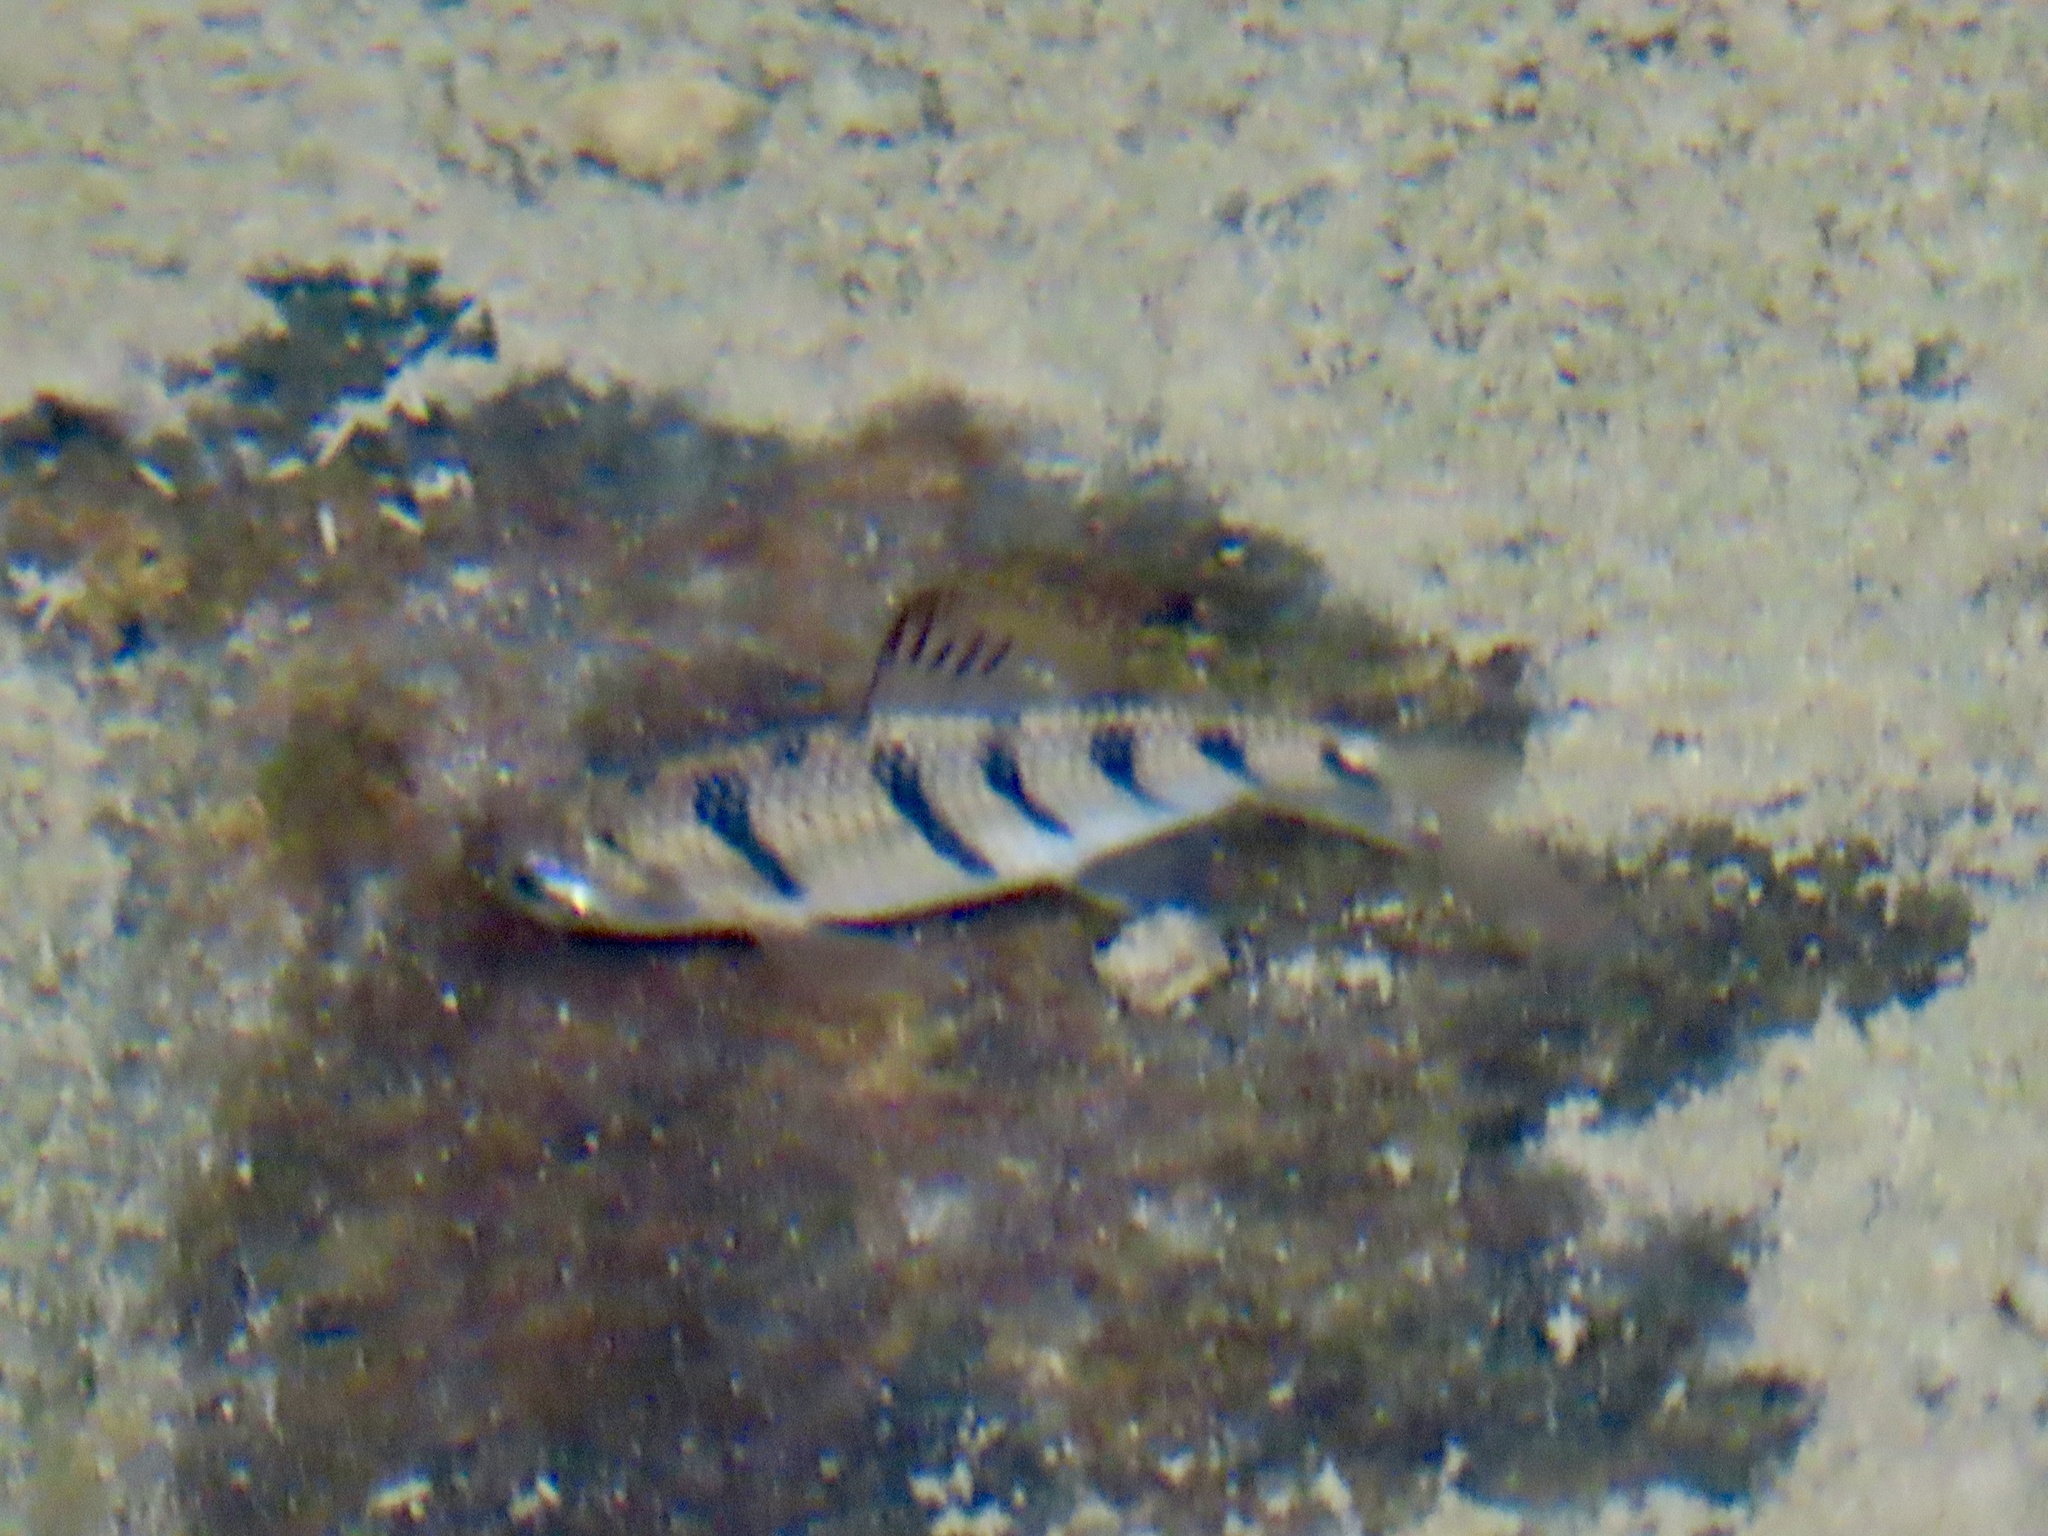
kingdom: Animalia
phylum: Chordata
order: Cypriniformes
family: Cyprinidae
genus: Acrossocheilus
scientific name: Acrossocheilus paradoxus
